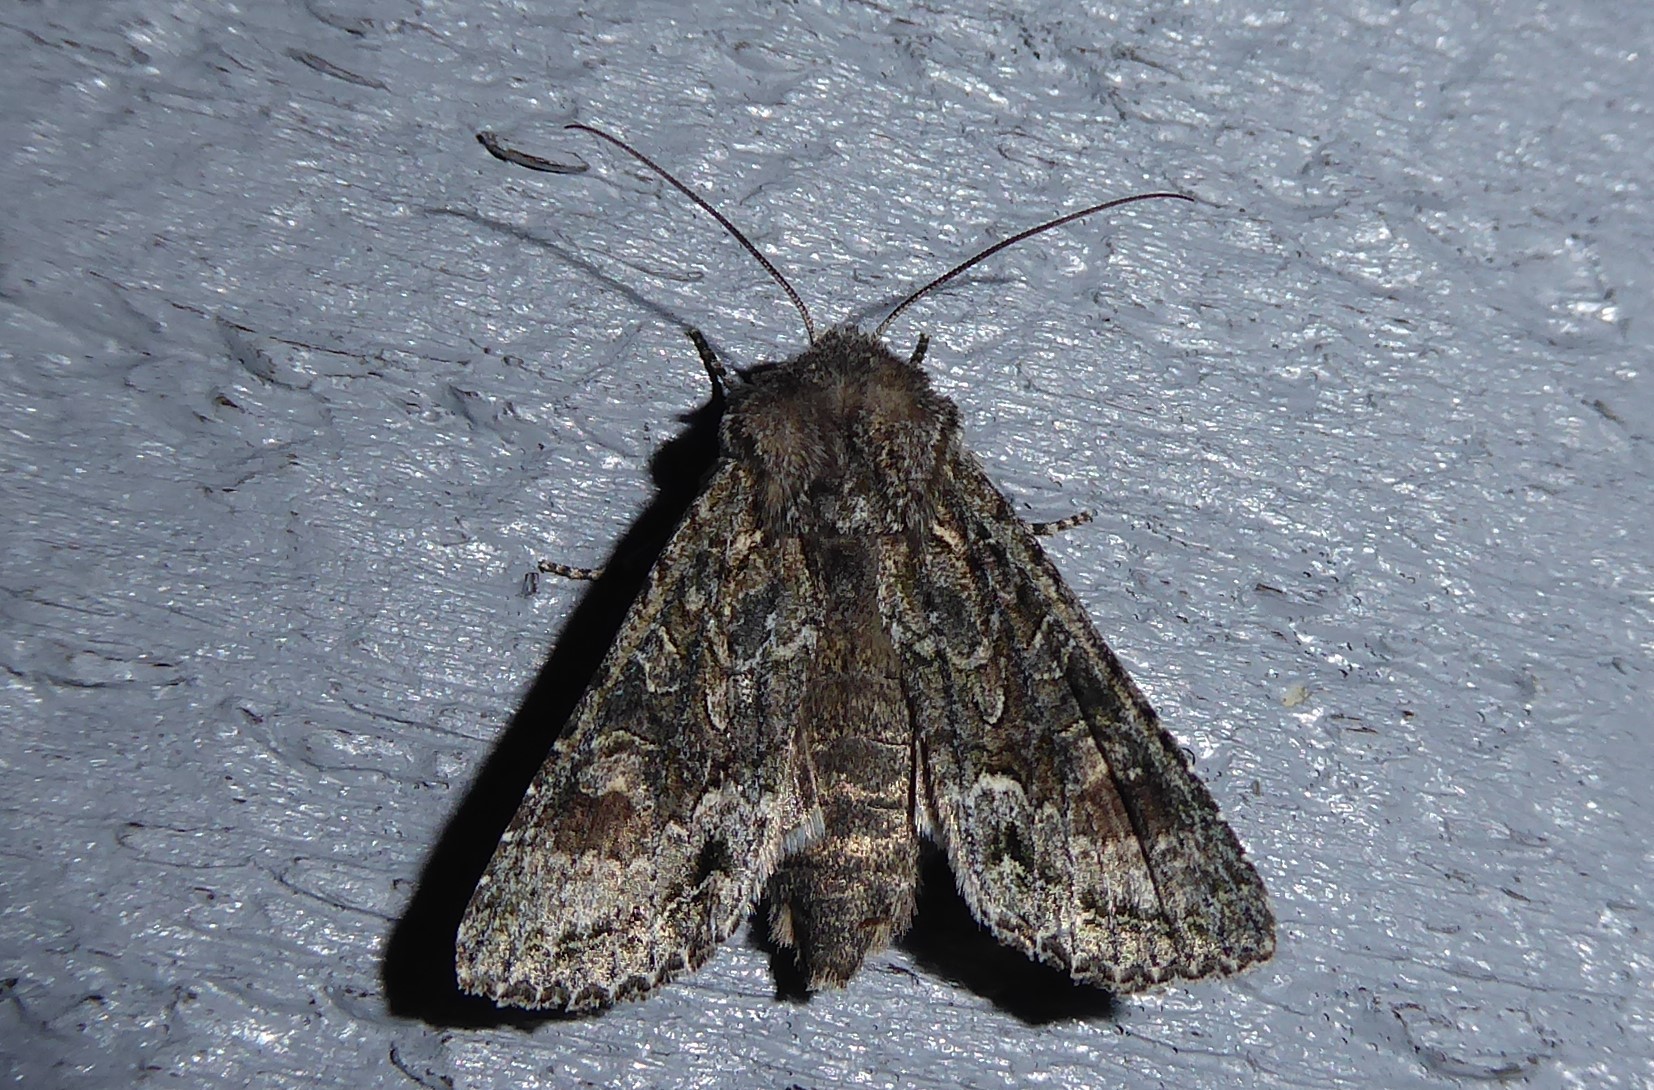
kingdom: Animalia
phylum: Arthropoda
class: Insecta
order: Lepidoptera
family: Noctuidae
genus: Ichneutica
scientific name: Ichneutica mutans
